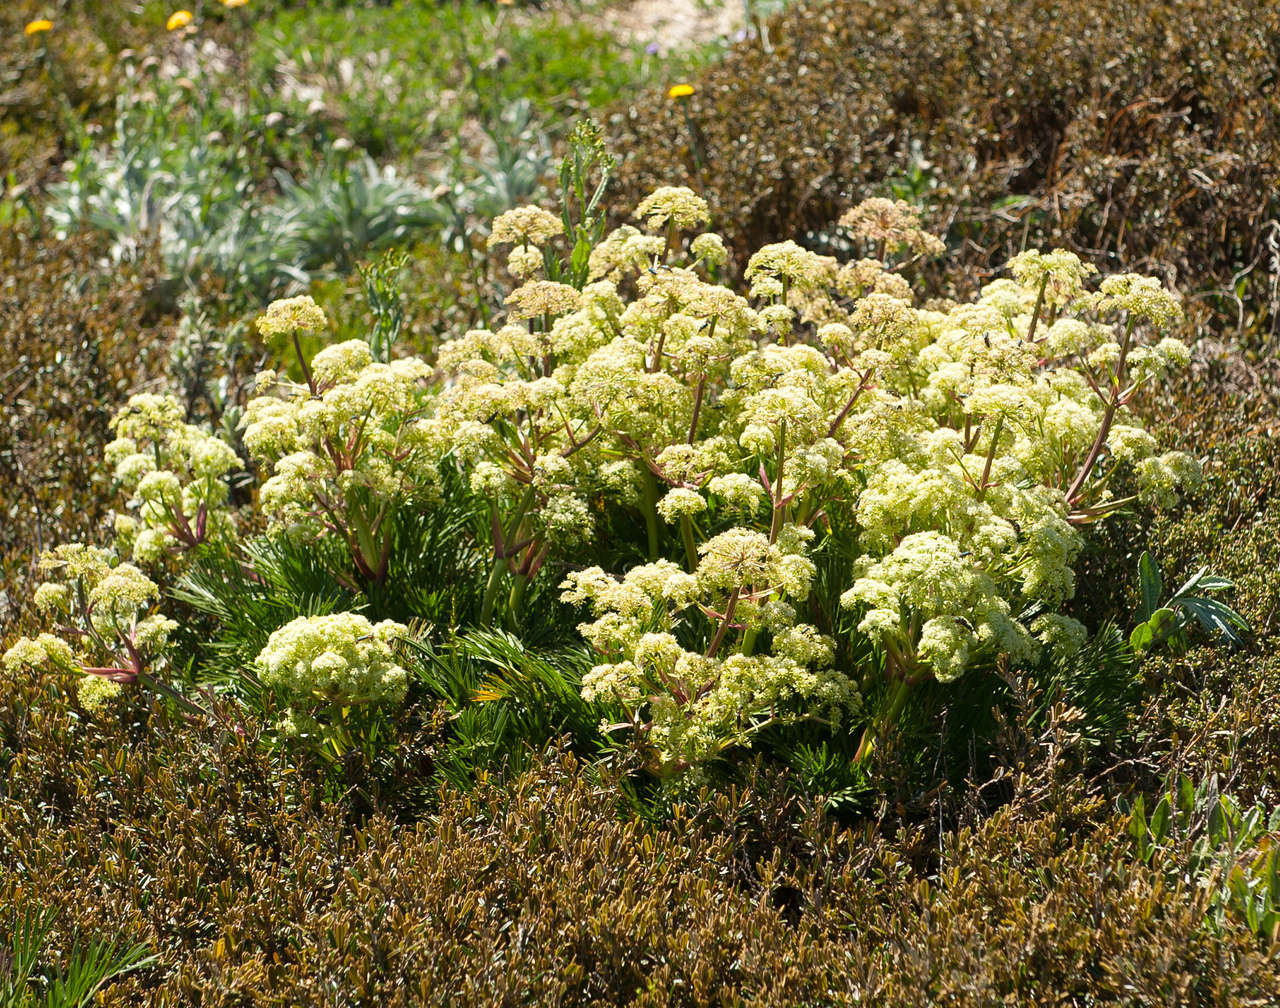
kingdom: Plantae
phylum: Tracheophyta
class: Magnoliopsida
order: Apiales
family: Apiaceae
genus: Aciphylla
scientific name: Aciphylla glacialis
